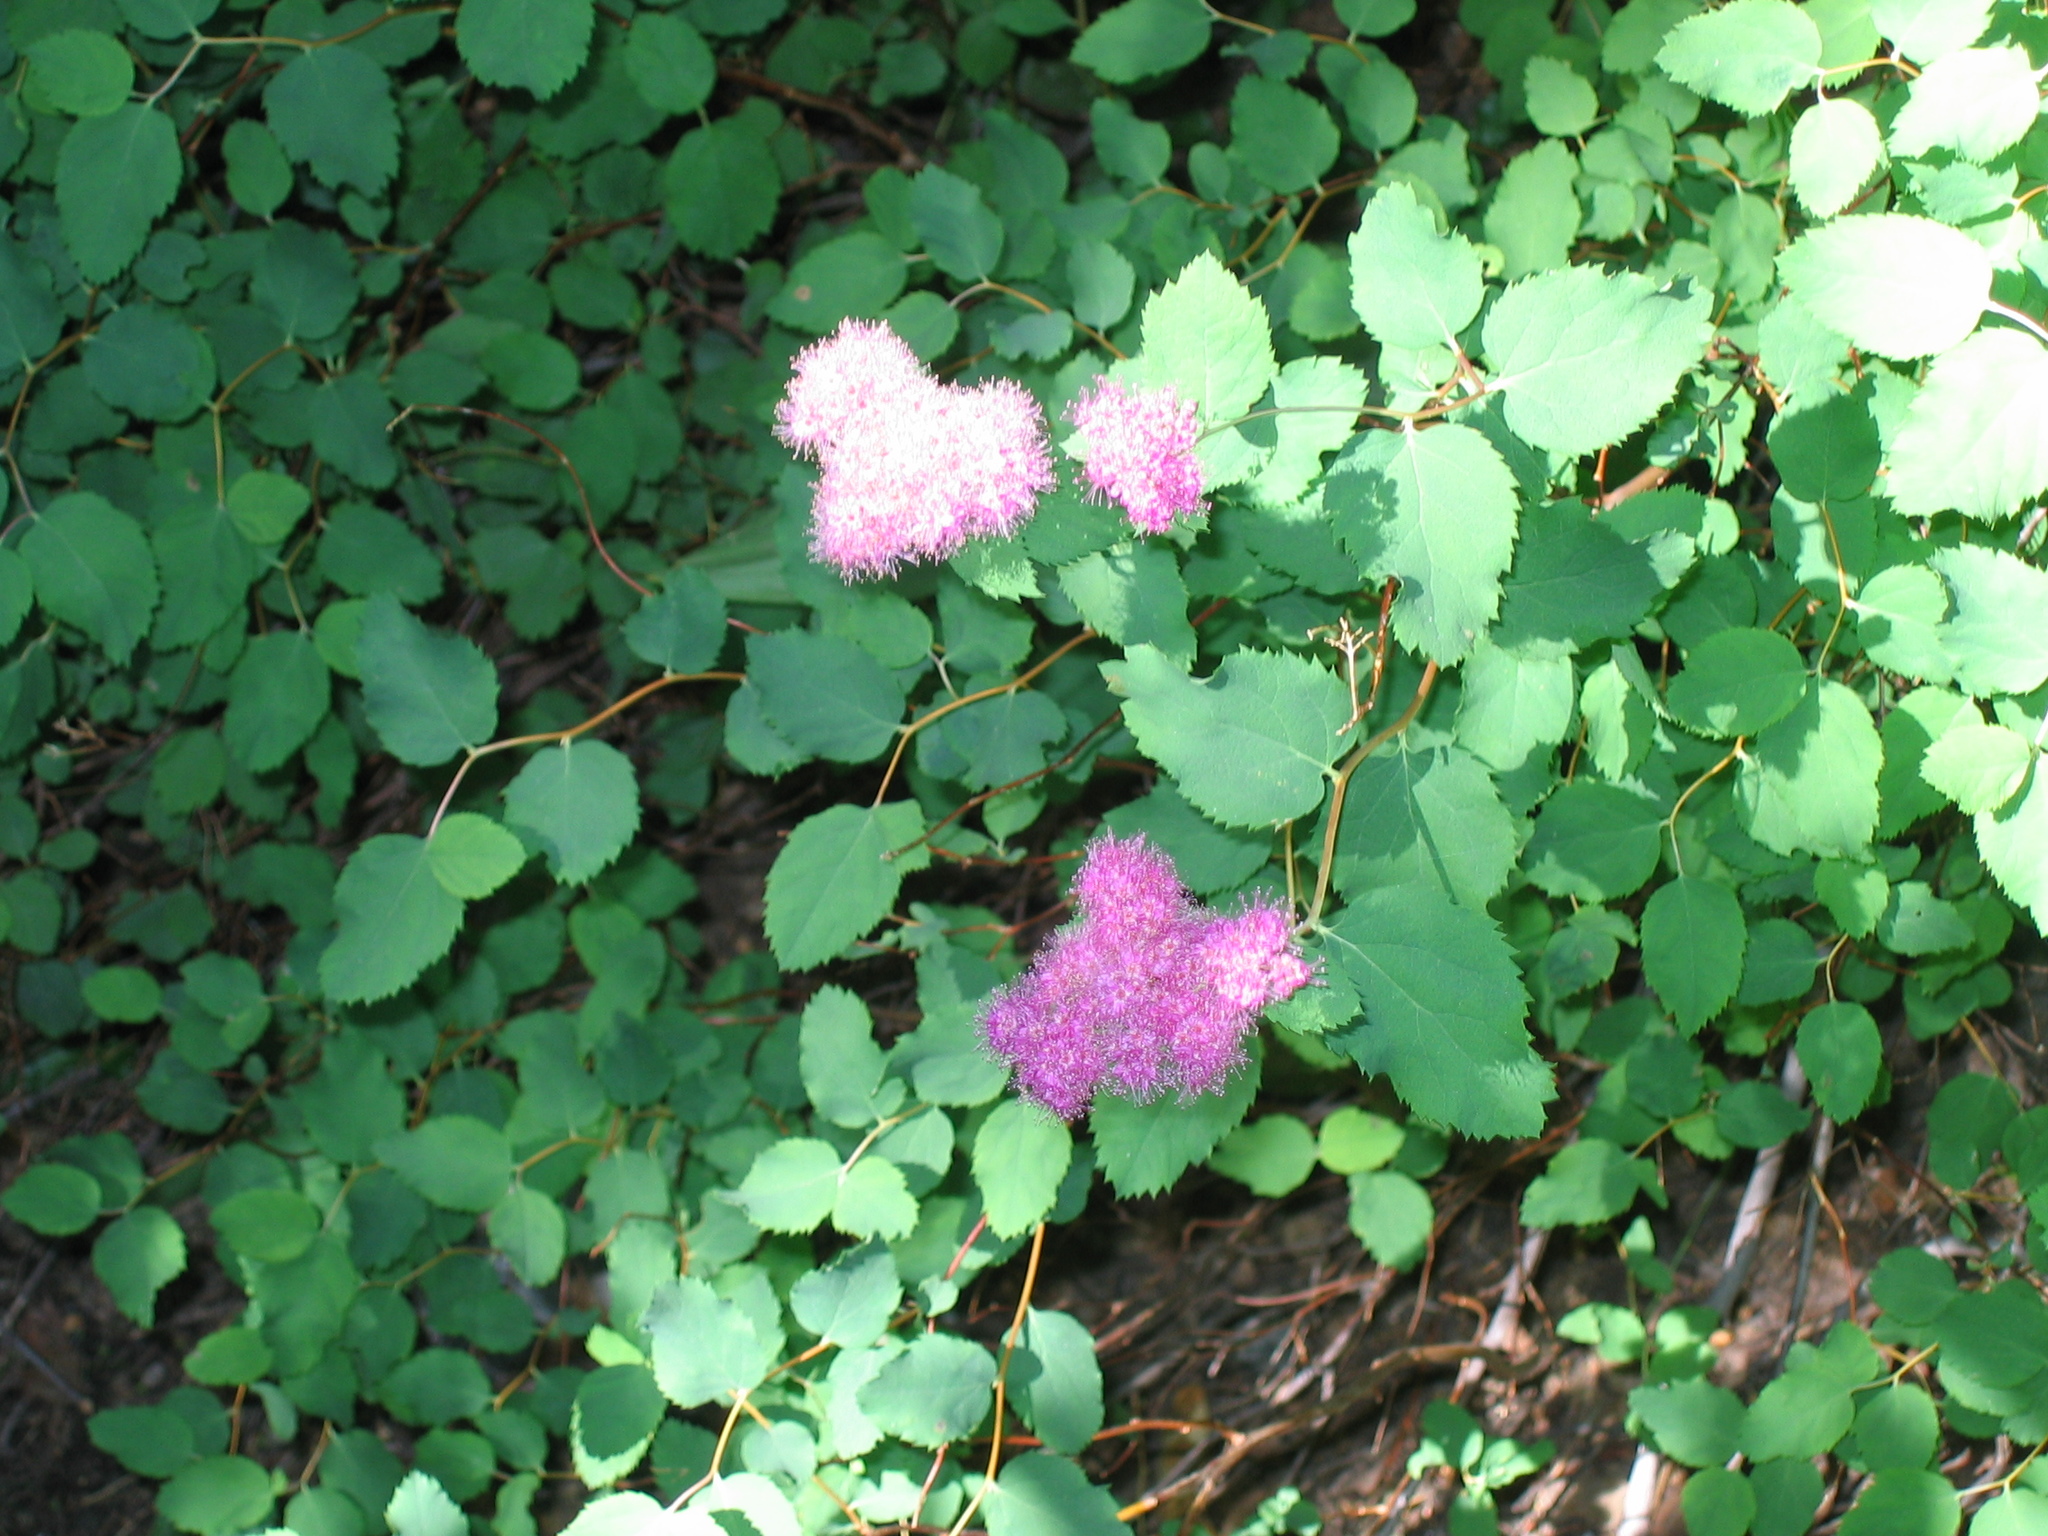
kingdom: Plantae
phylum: Tracheophyta
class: Magnoliopsida
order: Rosales
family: Rosaceae
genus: Spiraea
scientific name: Spiraea splendens
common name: Subalpine meadowsweet
